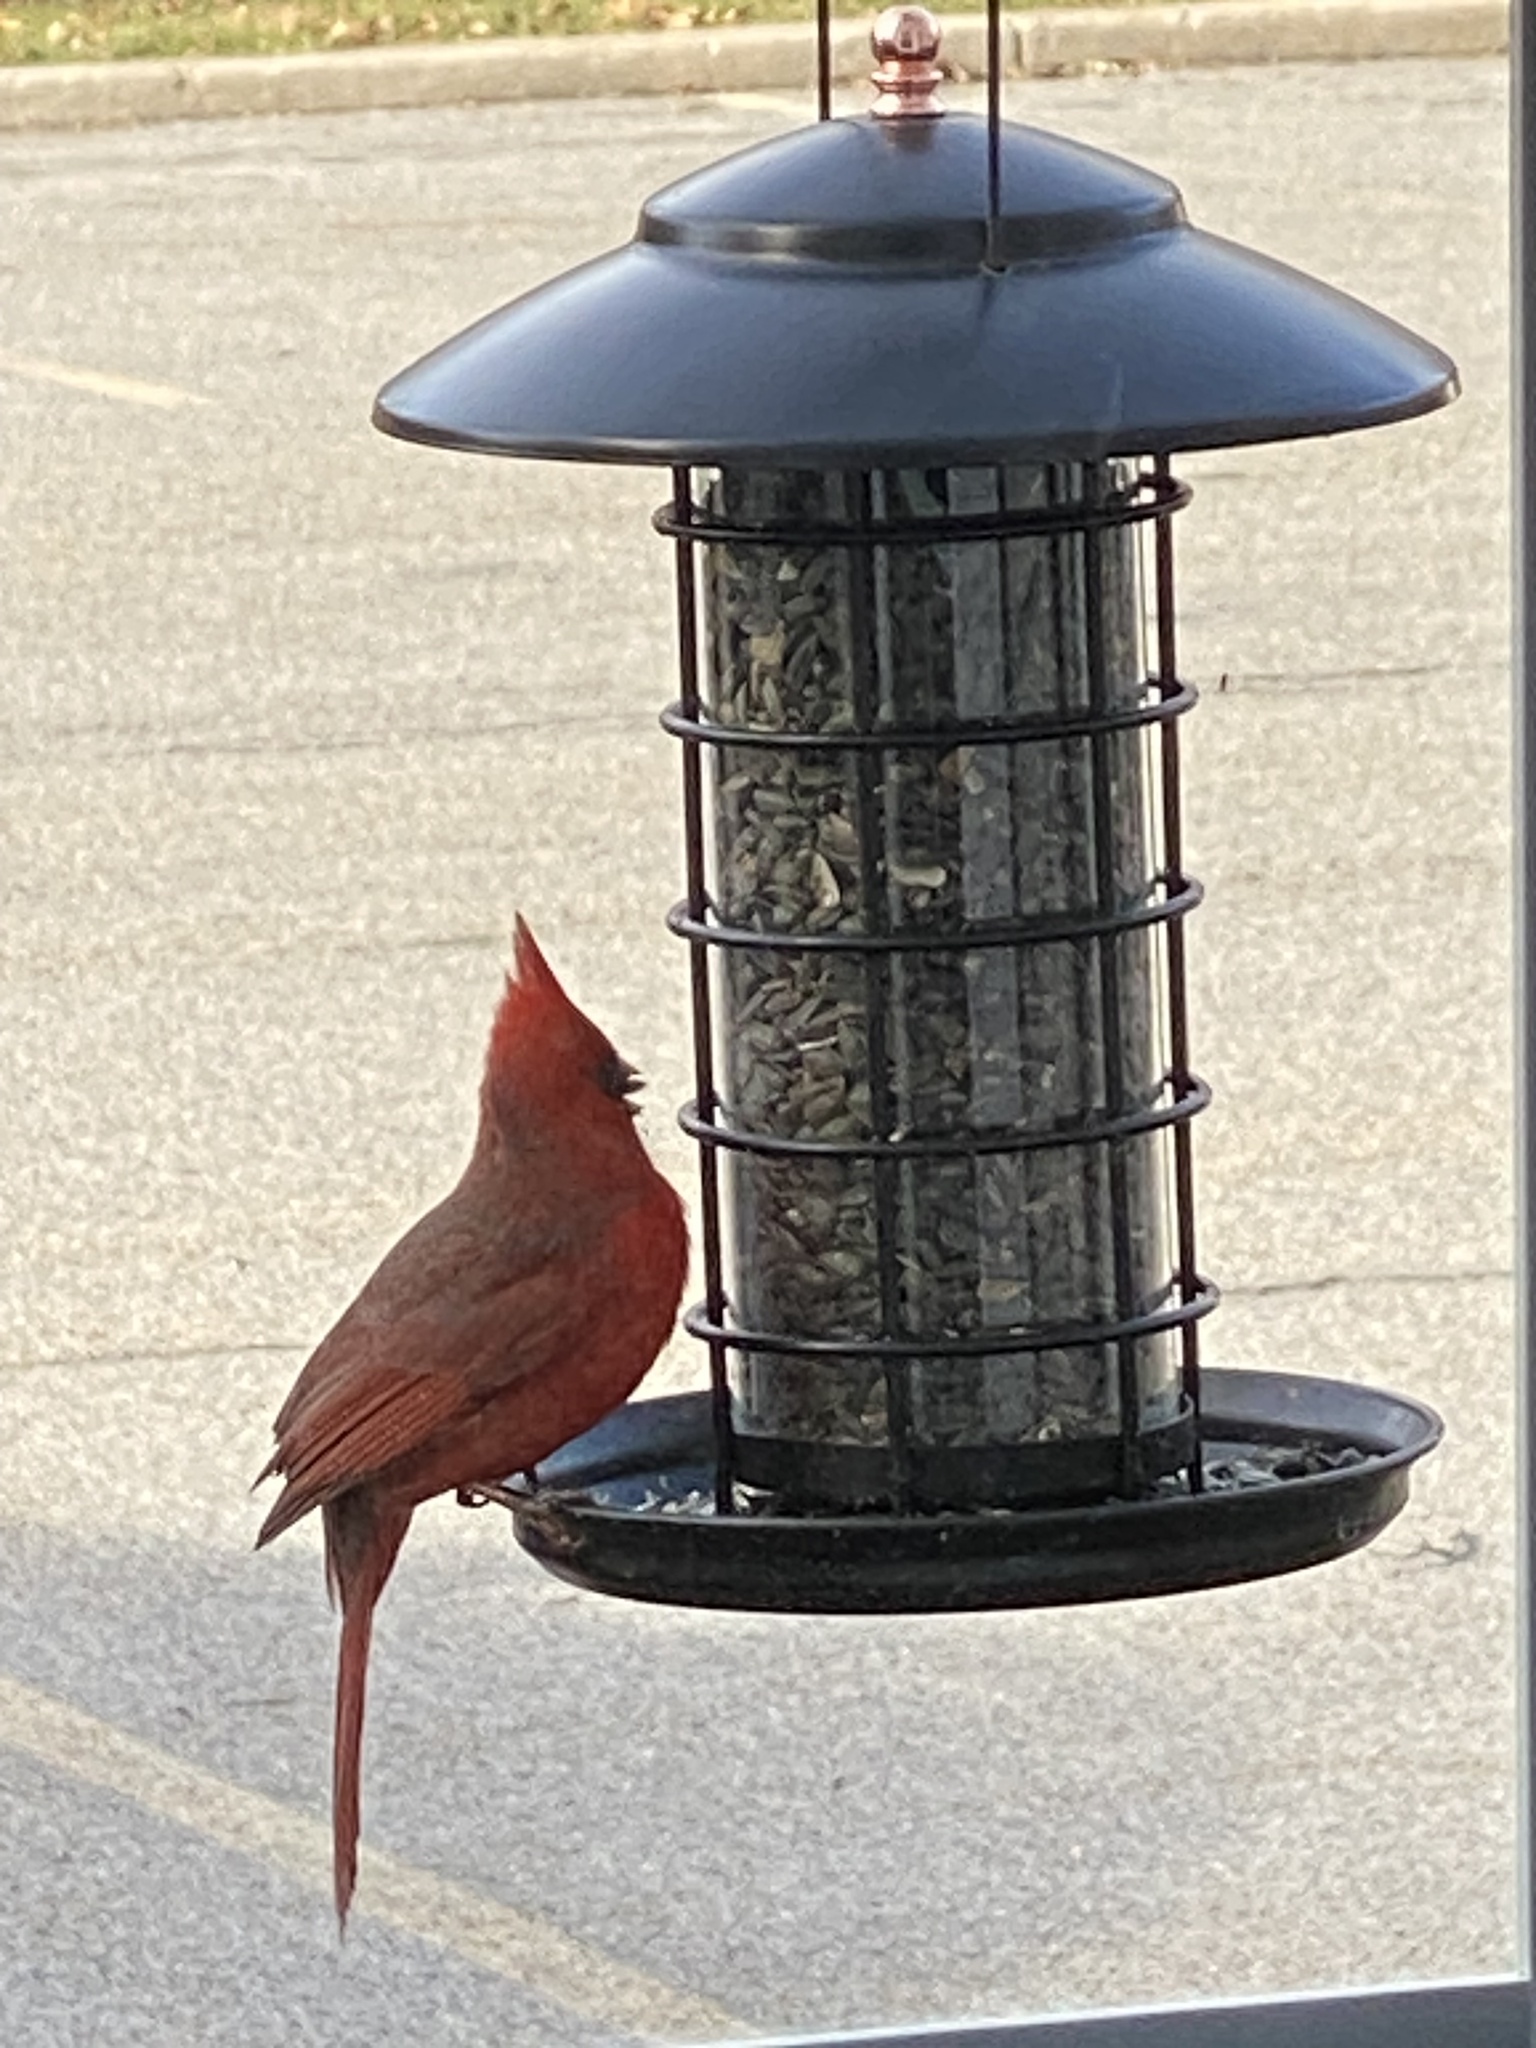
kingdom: Animalia
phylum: Chordata
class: Aves
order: Passeriformes
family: Cardinalidae
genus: Cardinalis
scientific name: Cardinalis cardinalis
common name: Northern cardinal
